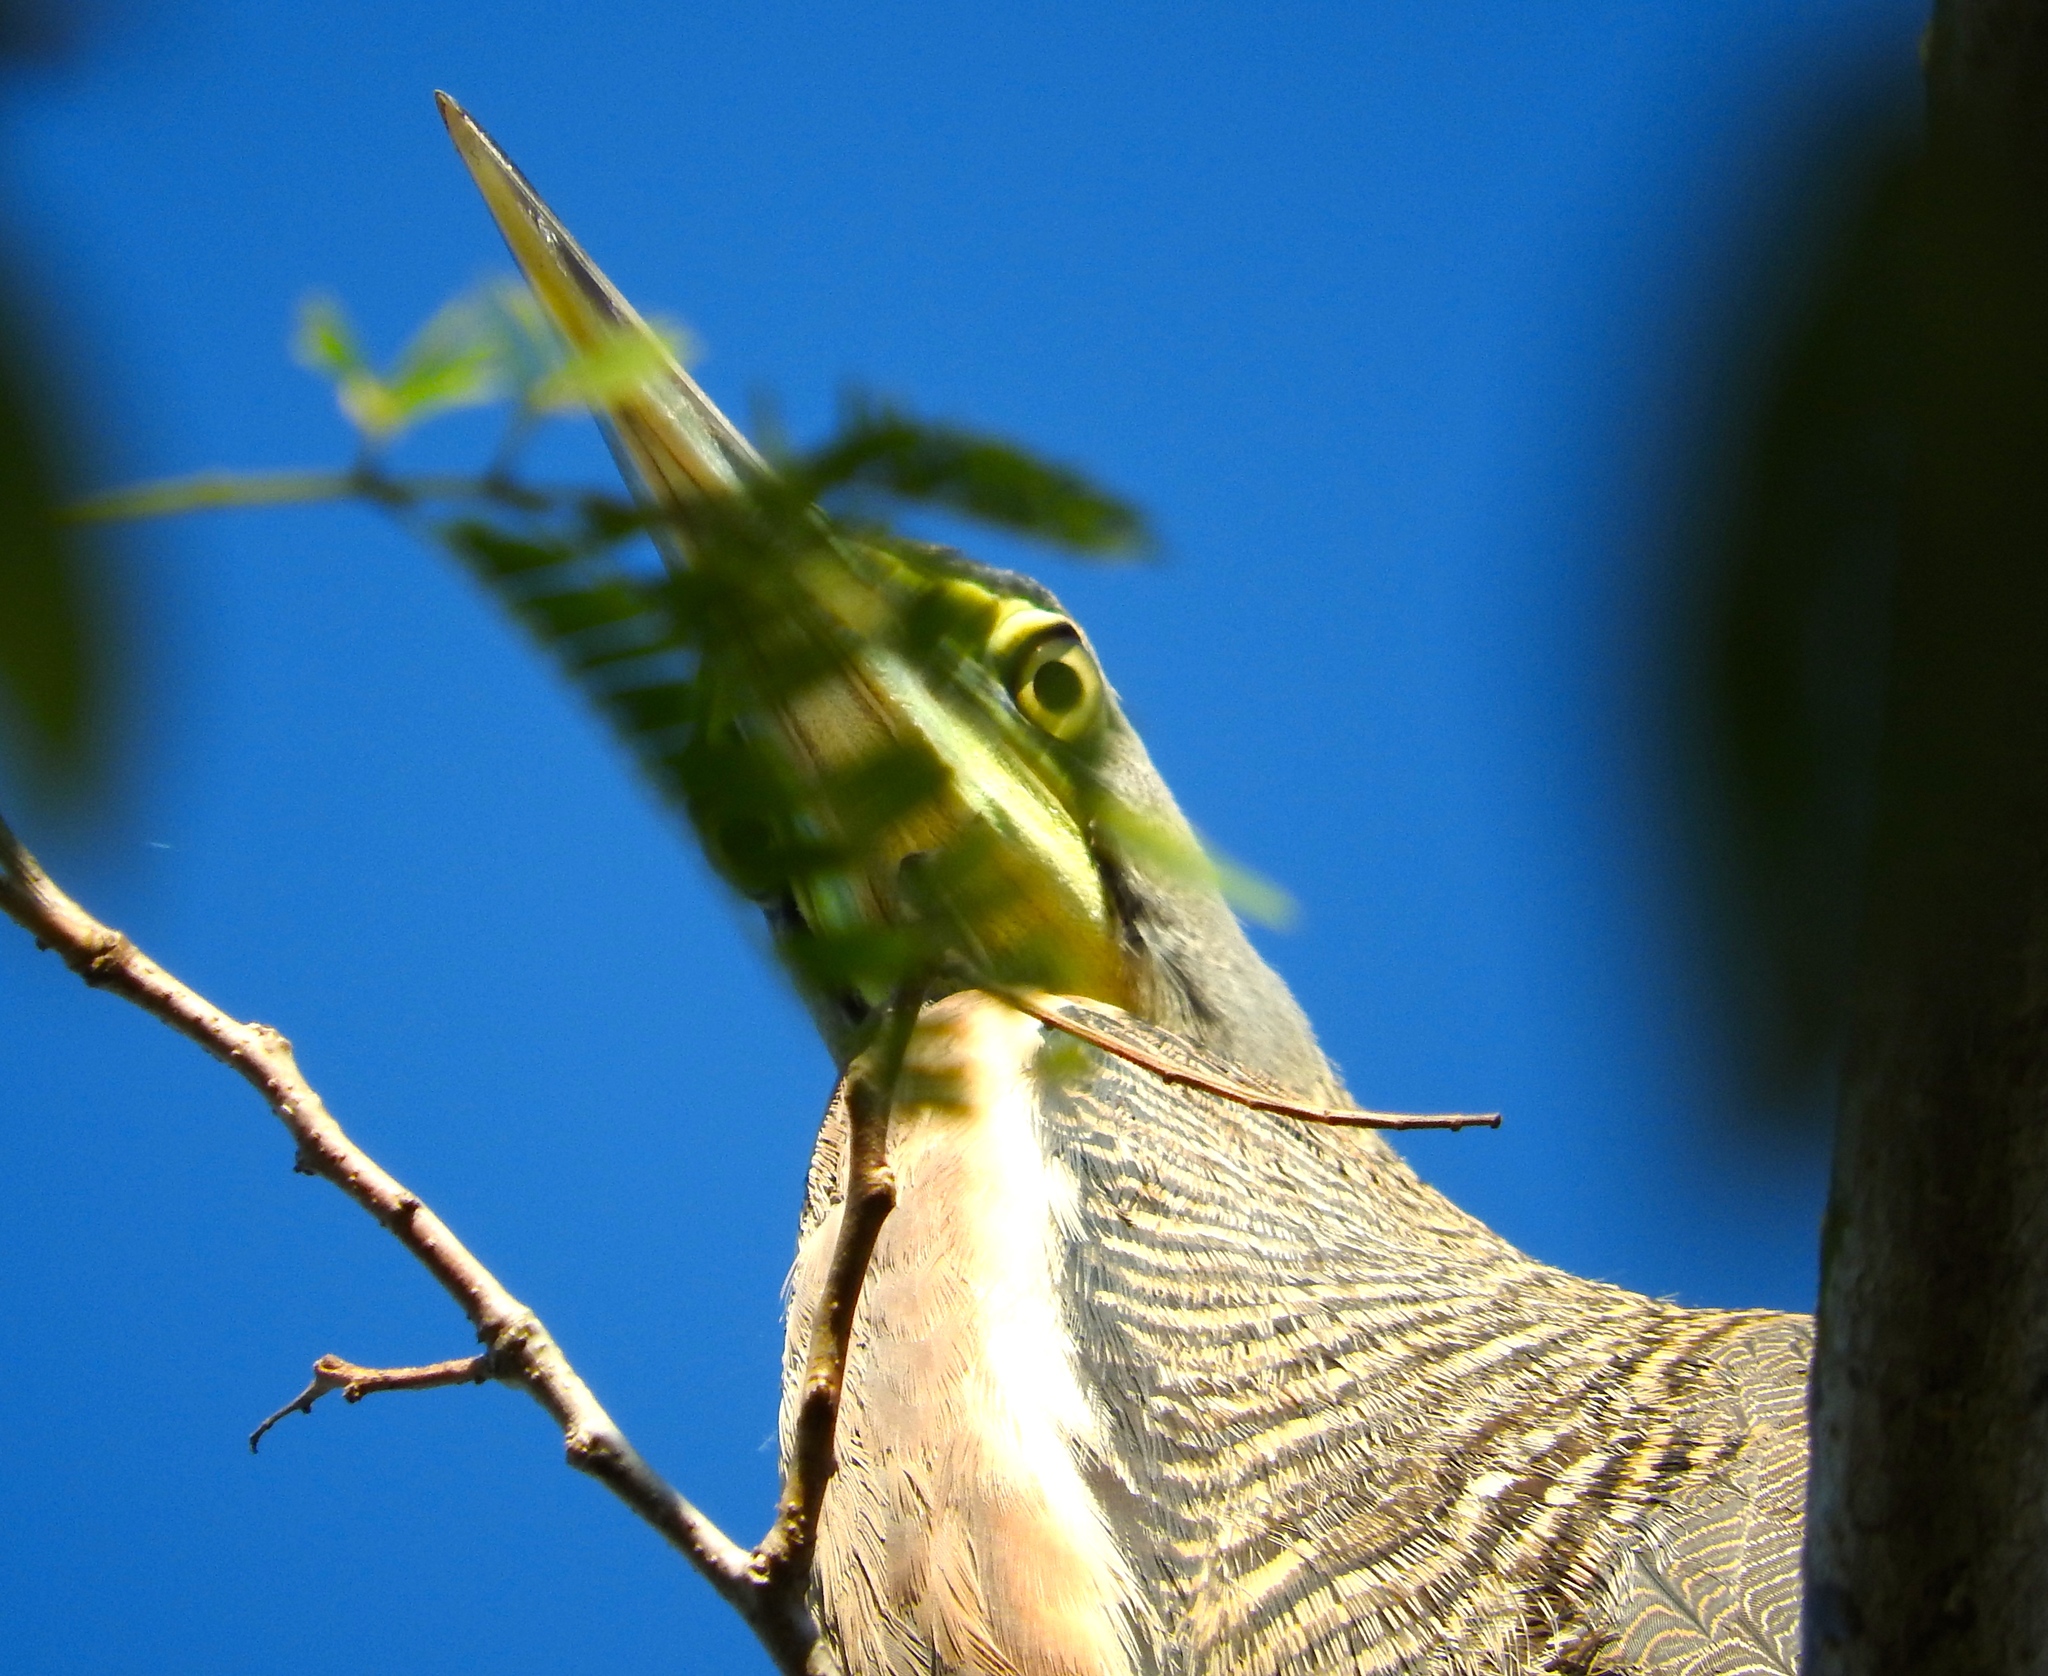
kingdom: Animalia
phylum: Chordata
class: Aves
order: Pelecaniformes
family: Ardeidae
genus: Tigrisoma
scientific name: Tigrisoma mexicanum
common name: Bare-throated tiger-heron
